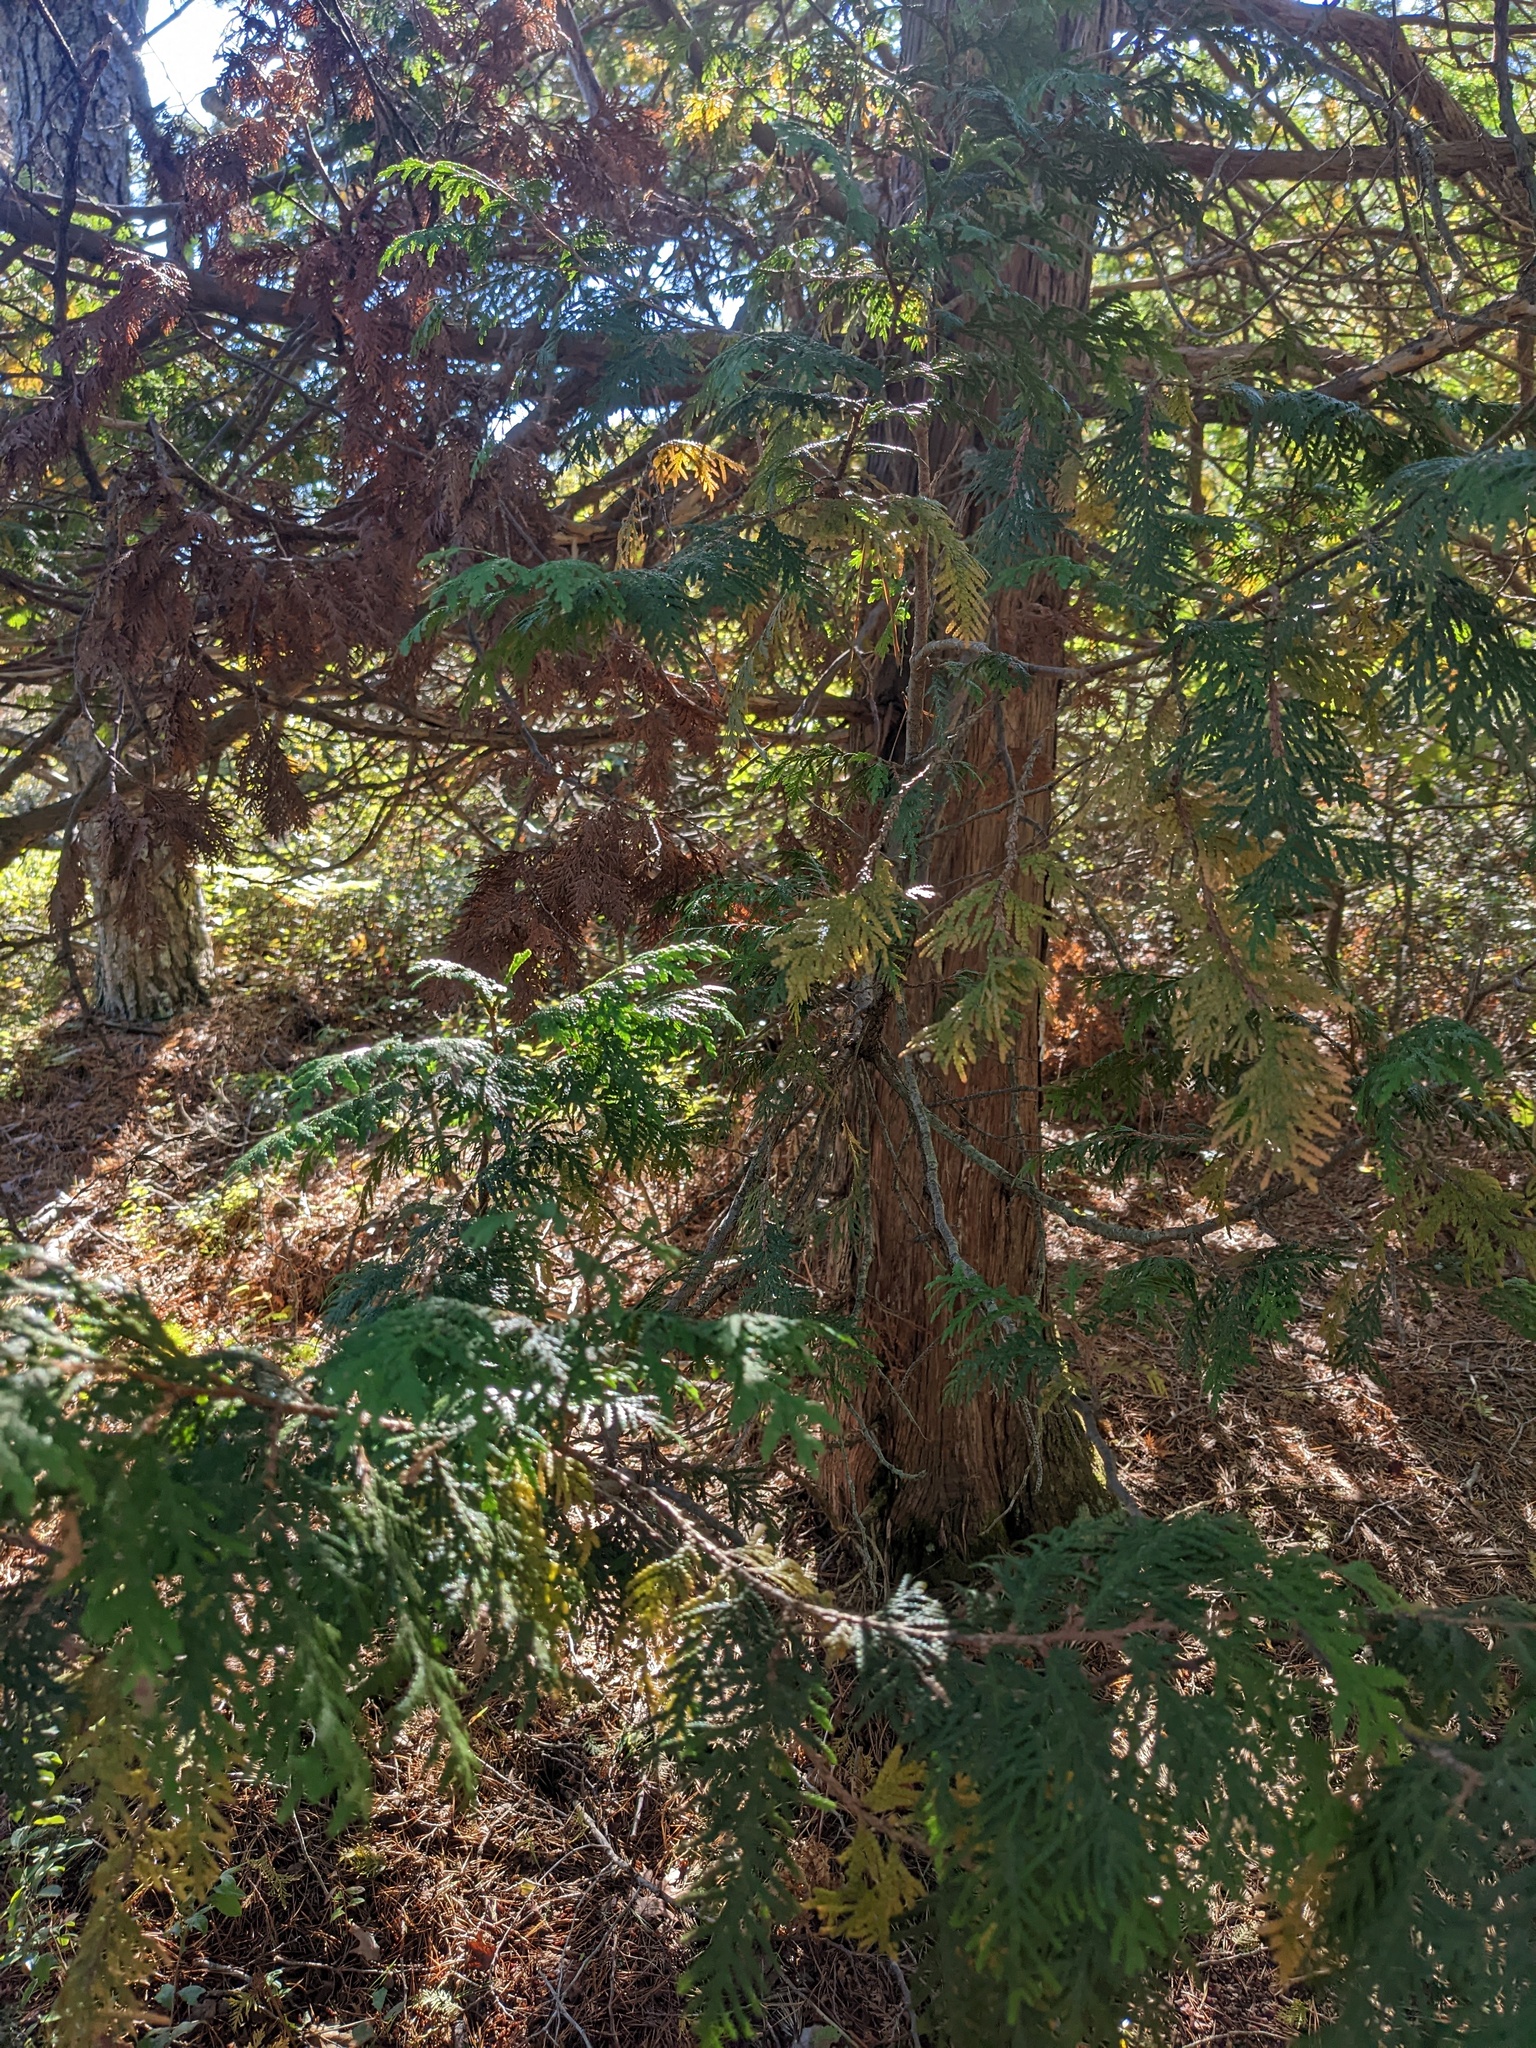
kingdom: Plantae
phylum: Tracheophyta
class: Pinopsida
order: Pinales
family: Cupressaceae
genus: Thuja
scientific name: Thuja occidentalis
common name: Northern white-cedar
